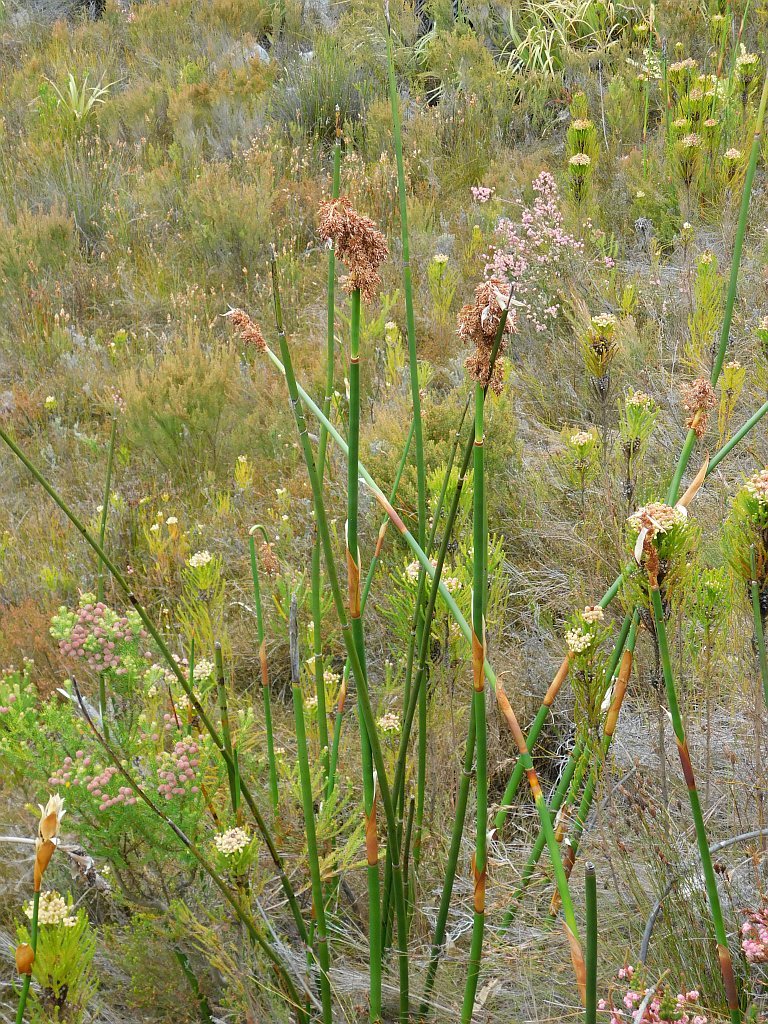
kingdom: Plantae
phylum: Tracheophyta
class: Liliopsida
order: Poales
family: Restionaceae
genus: Elegia
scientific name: Elegia mucronata
